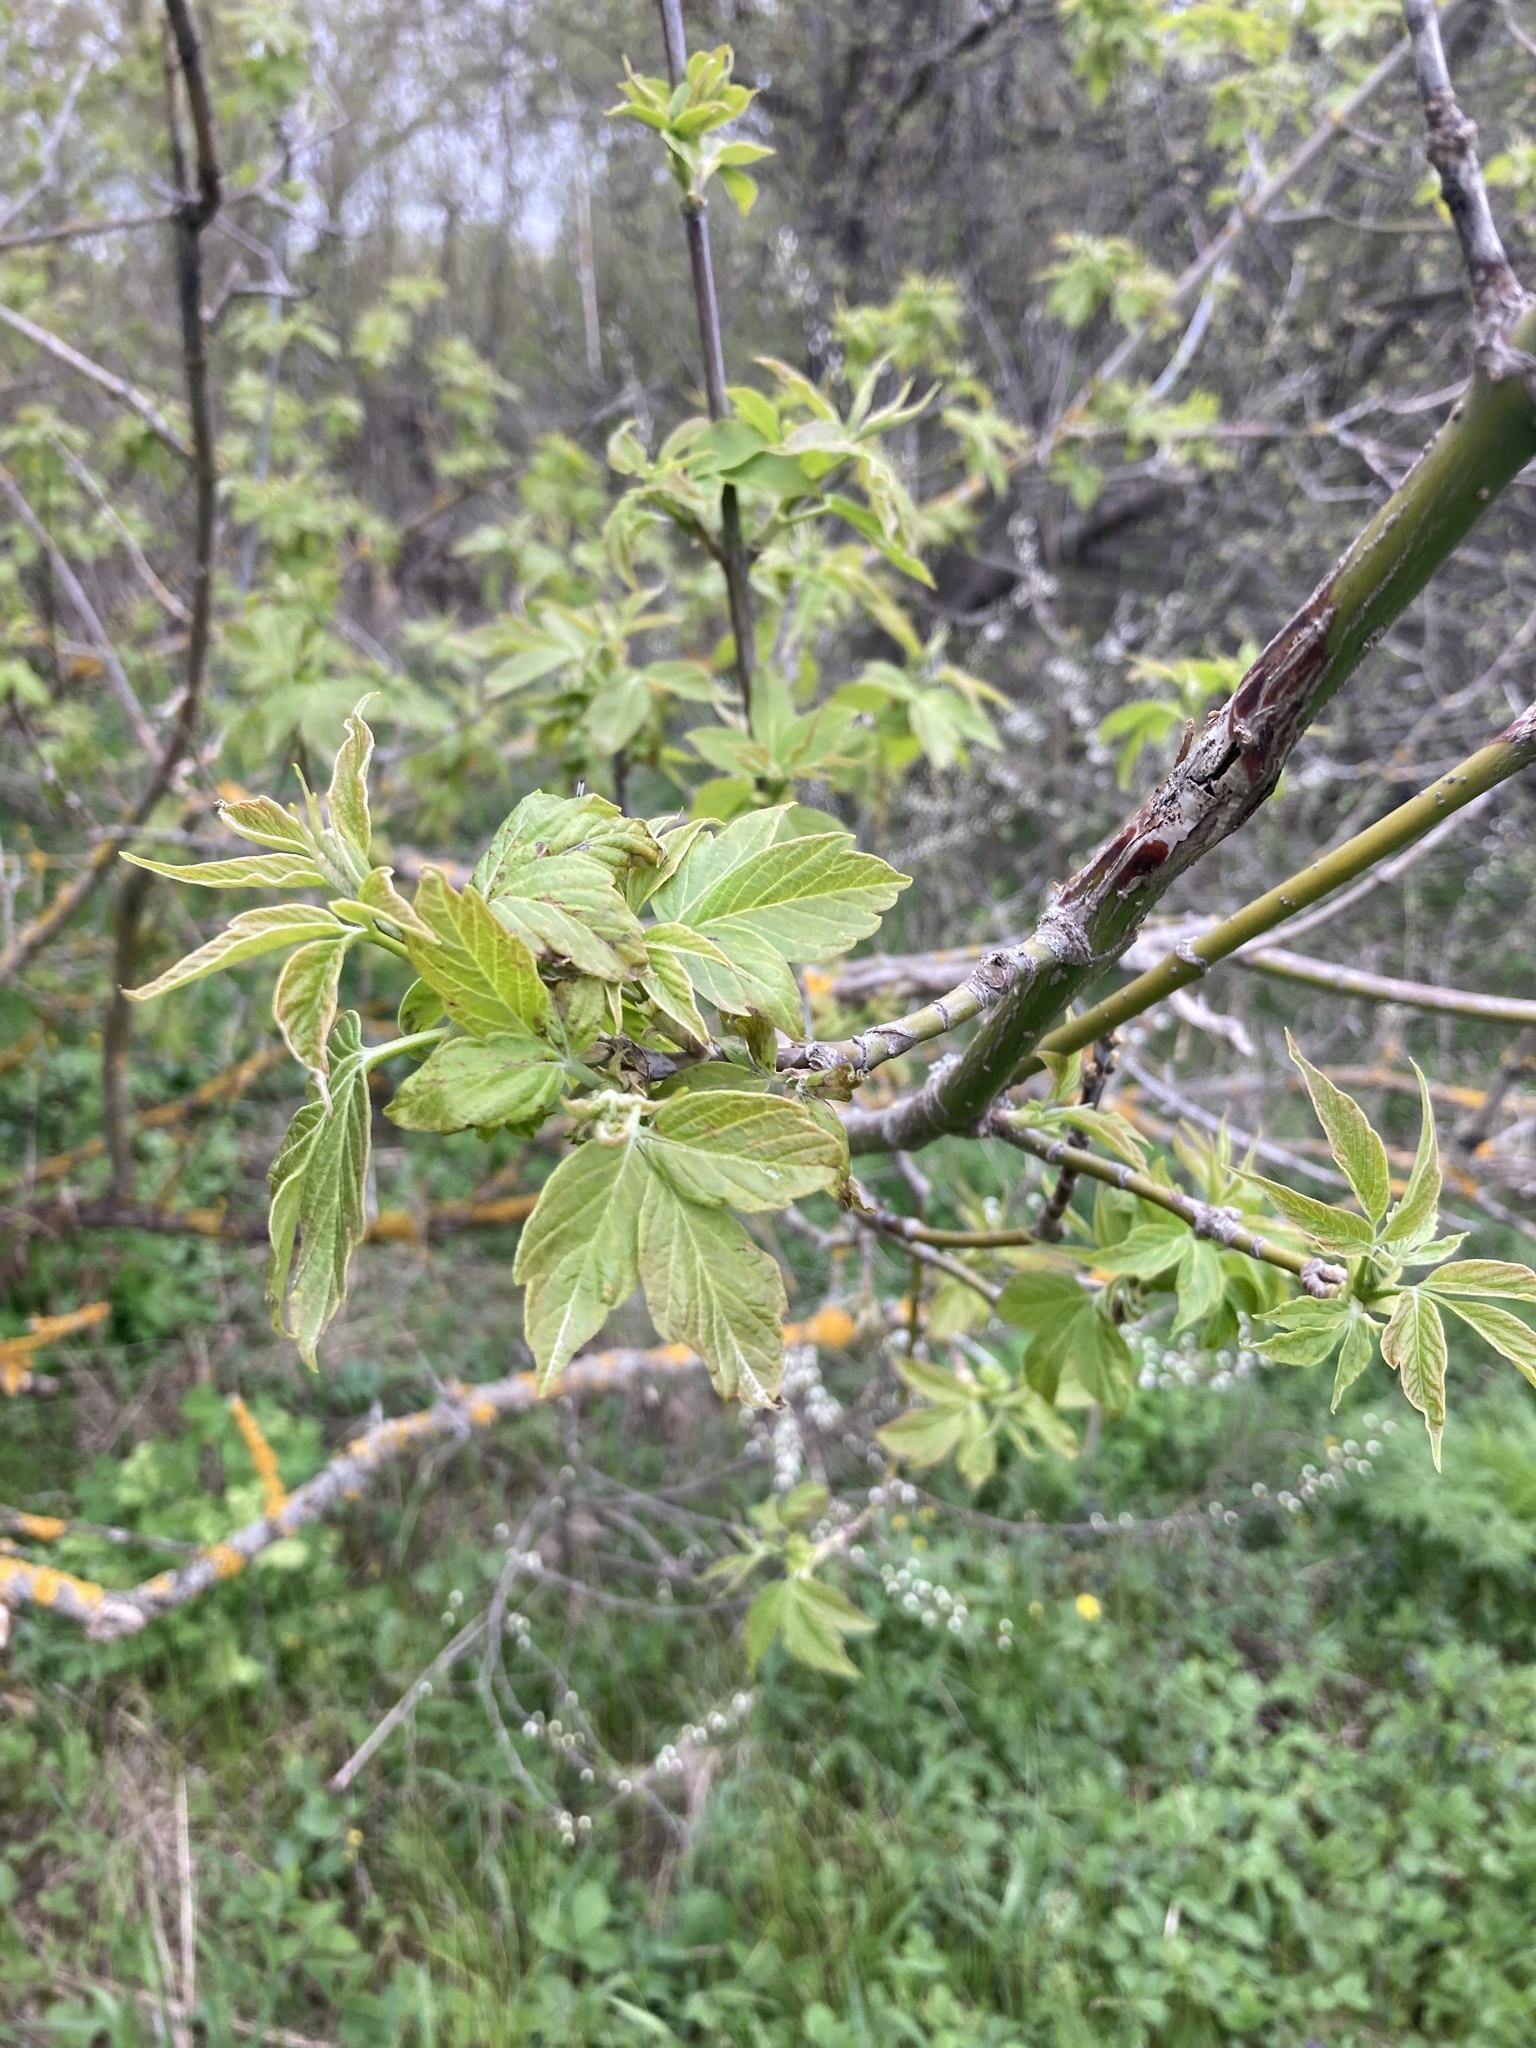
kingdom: Plantae
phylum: Tracheophyta
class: Magnoliopsida
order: Sapindales
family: Sapindaceae
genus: Acer
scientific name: Acer negundo
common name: Ashleaf maple
